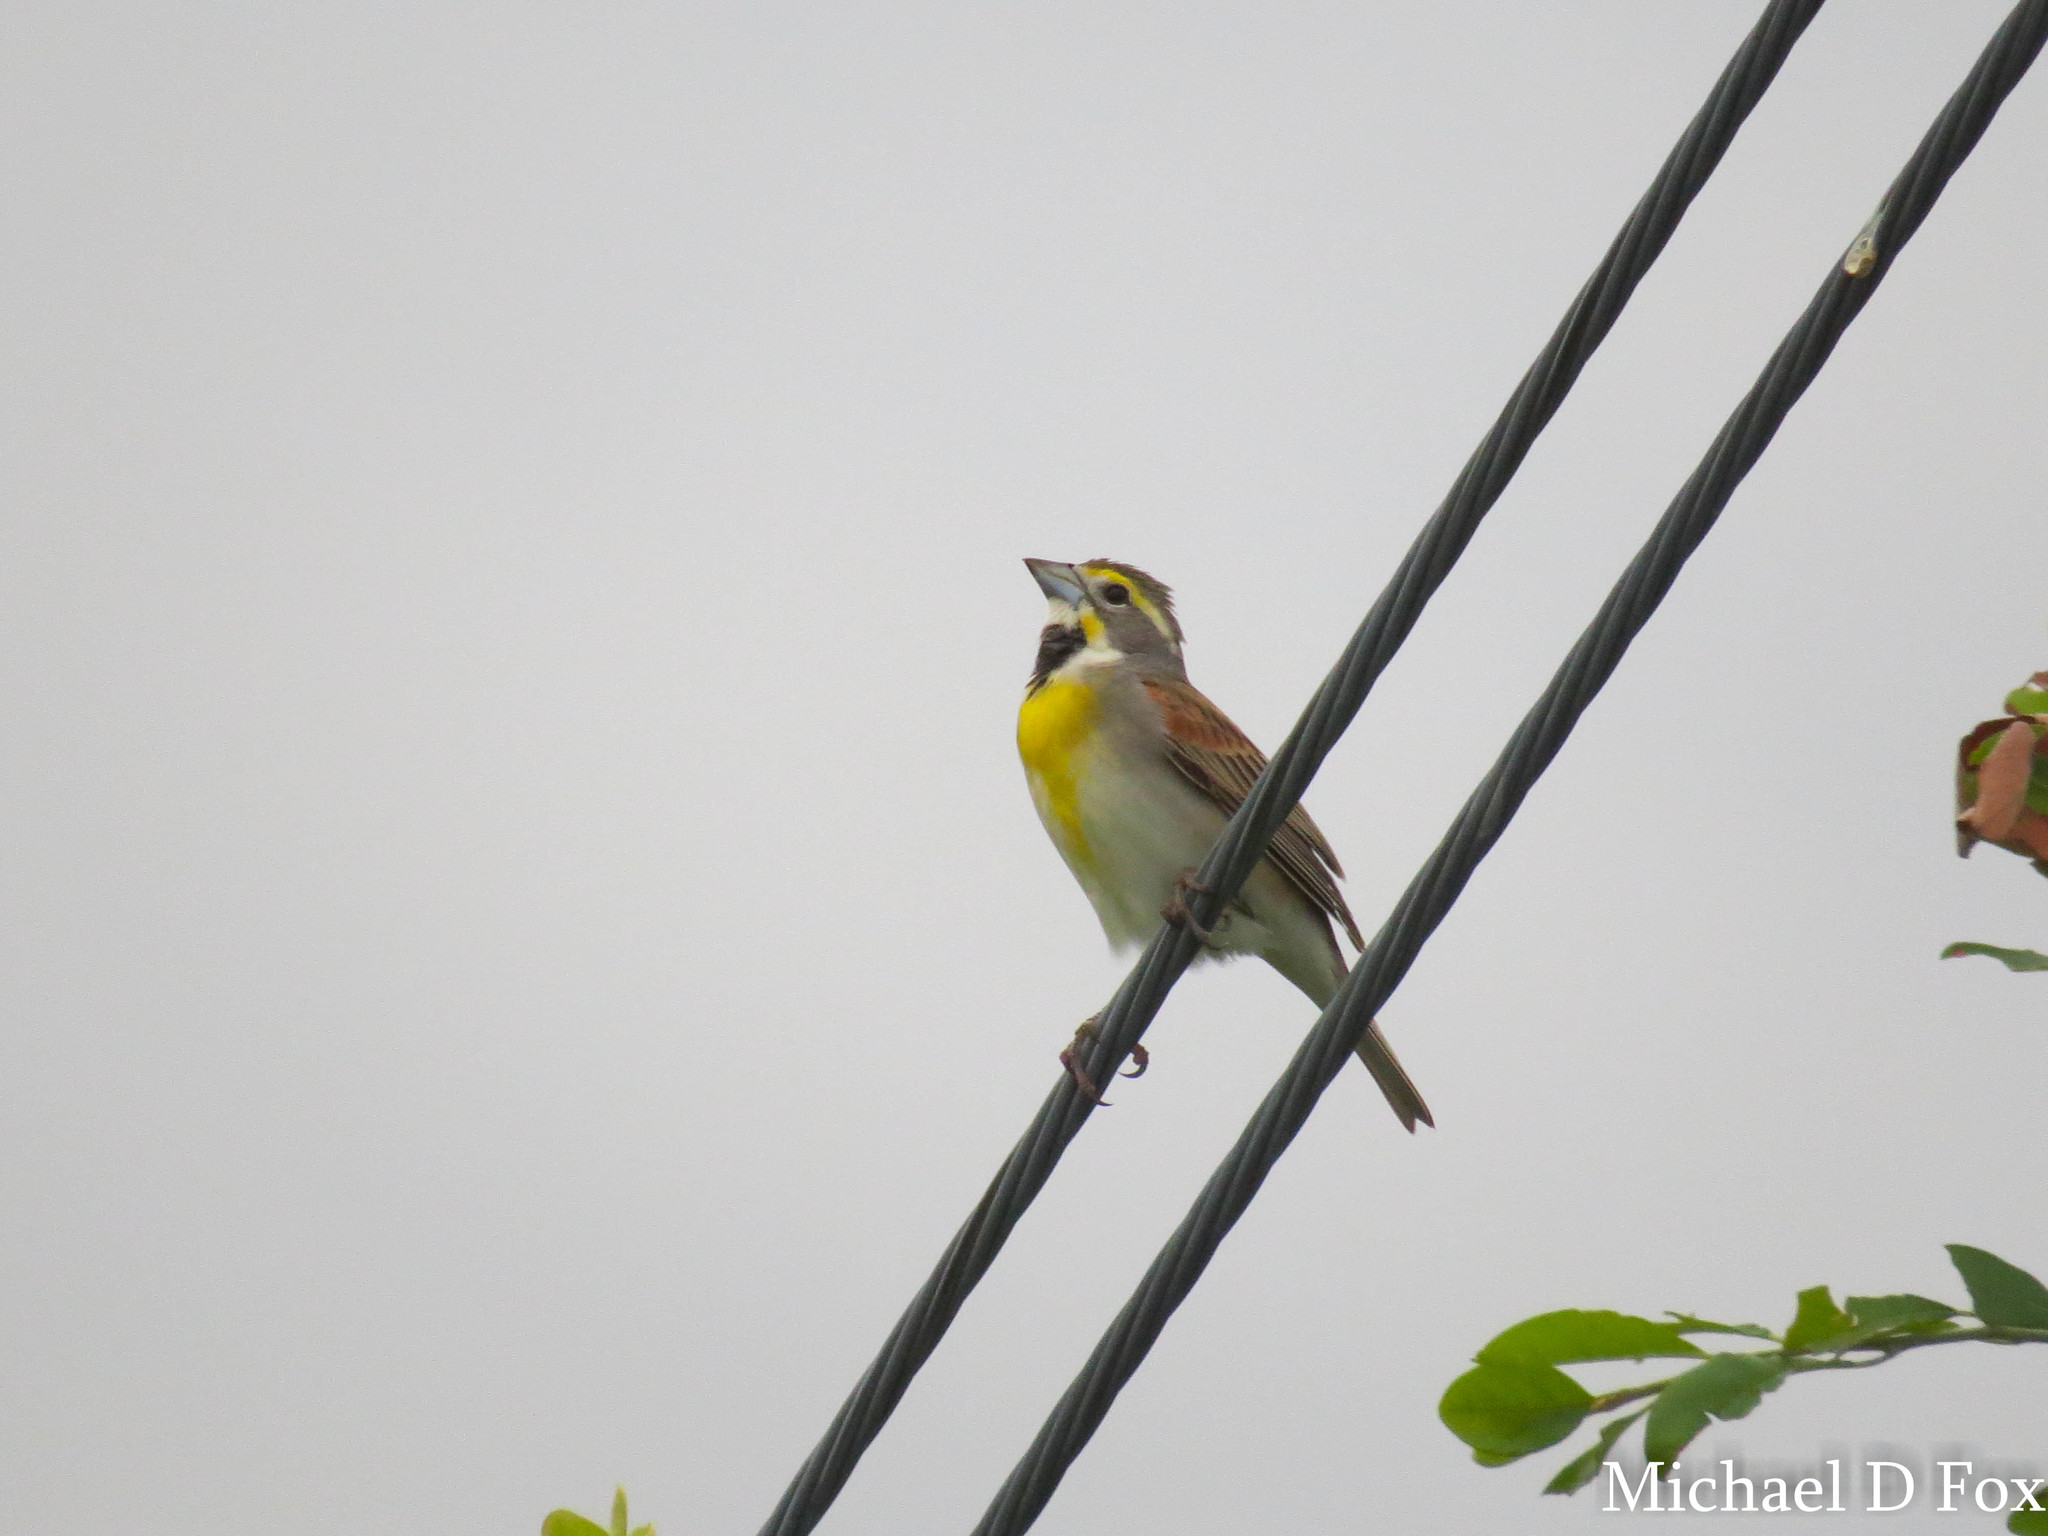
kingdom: Animalia
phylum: Chordata
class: Aves
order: Passeriformes
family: Cardinalidae
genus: Spiza
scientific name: Spiza americana
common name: Dickcissel
